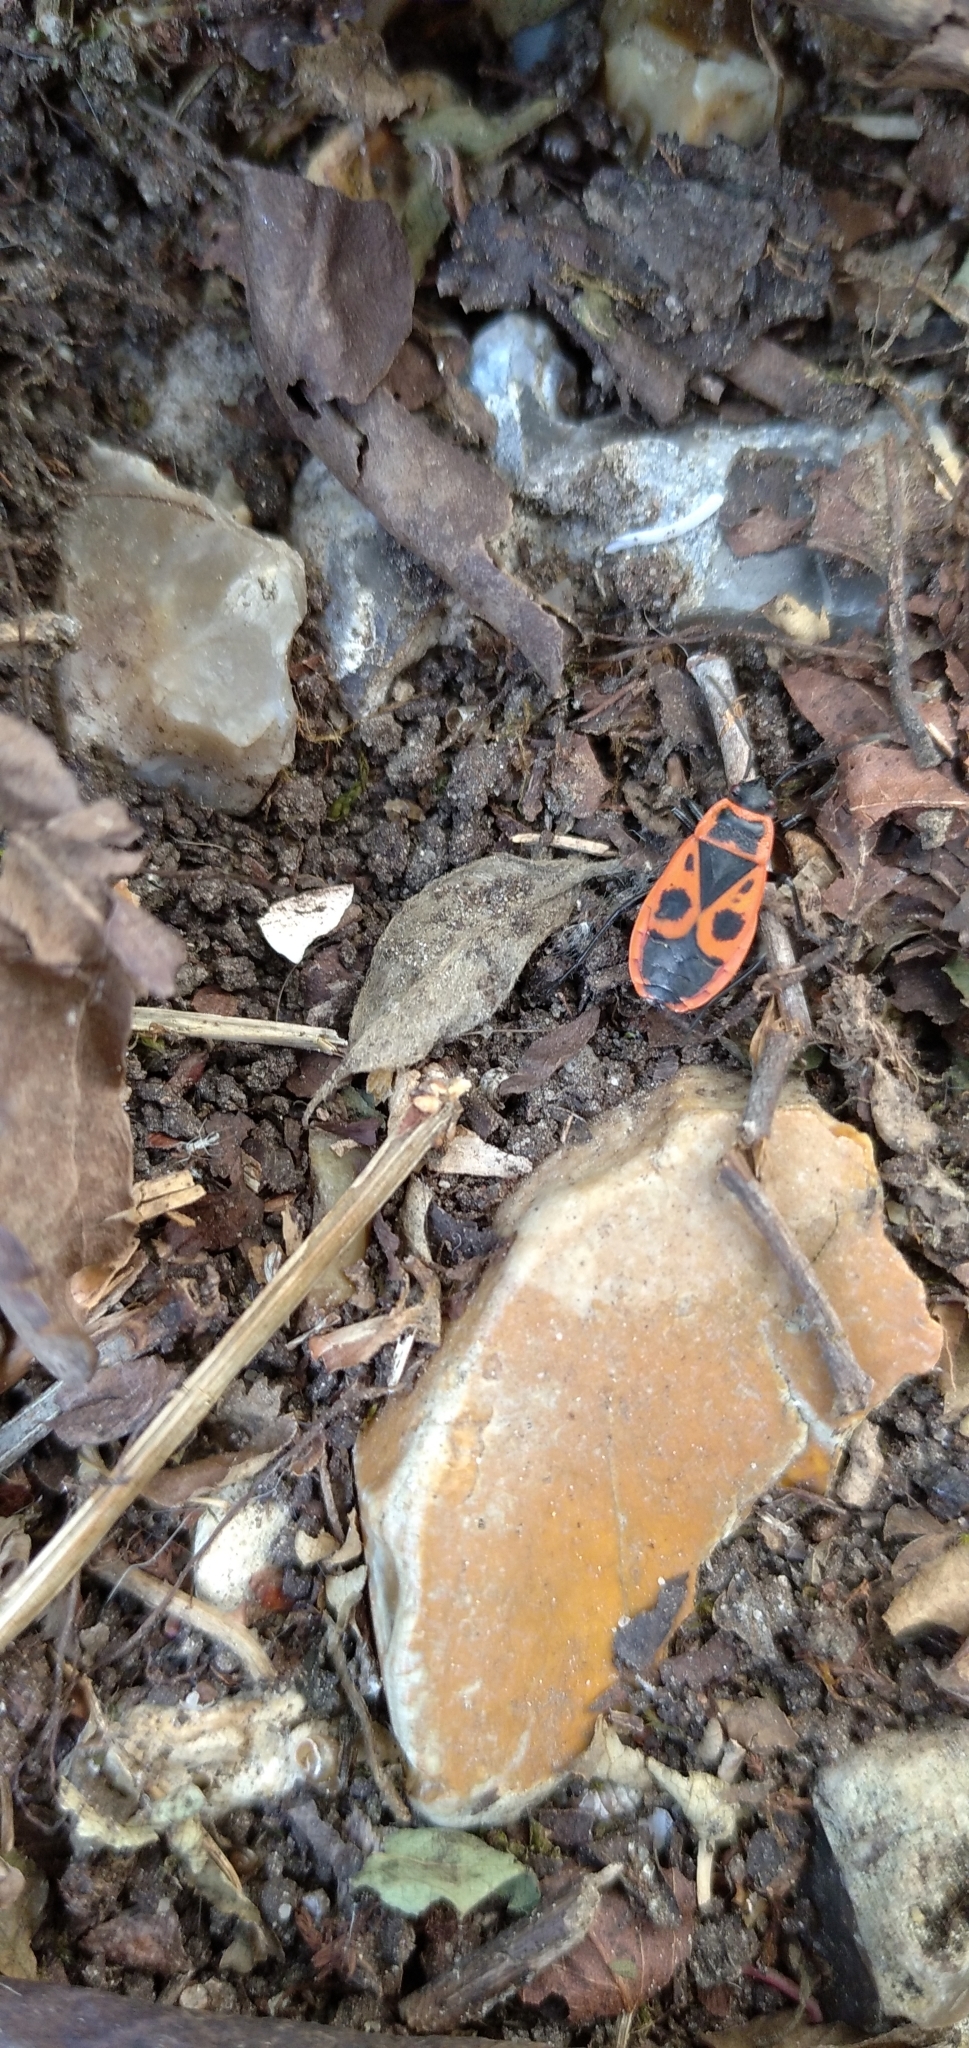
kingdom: Animalia
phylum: Arthropoda
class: Insecta
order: Hemiptera
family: Pyrrhocoridae
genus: Pyrrhocoris
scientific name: Pyrrhocoris apterus
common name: Firebug
